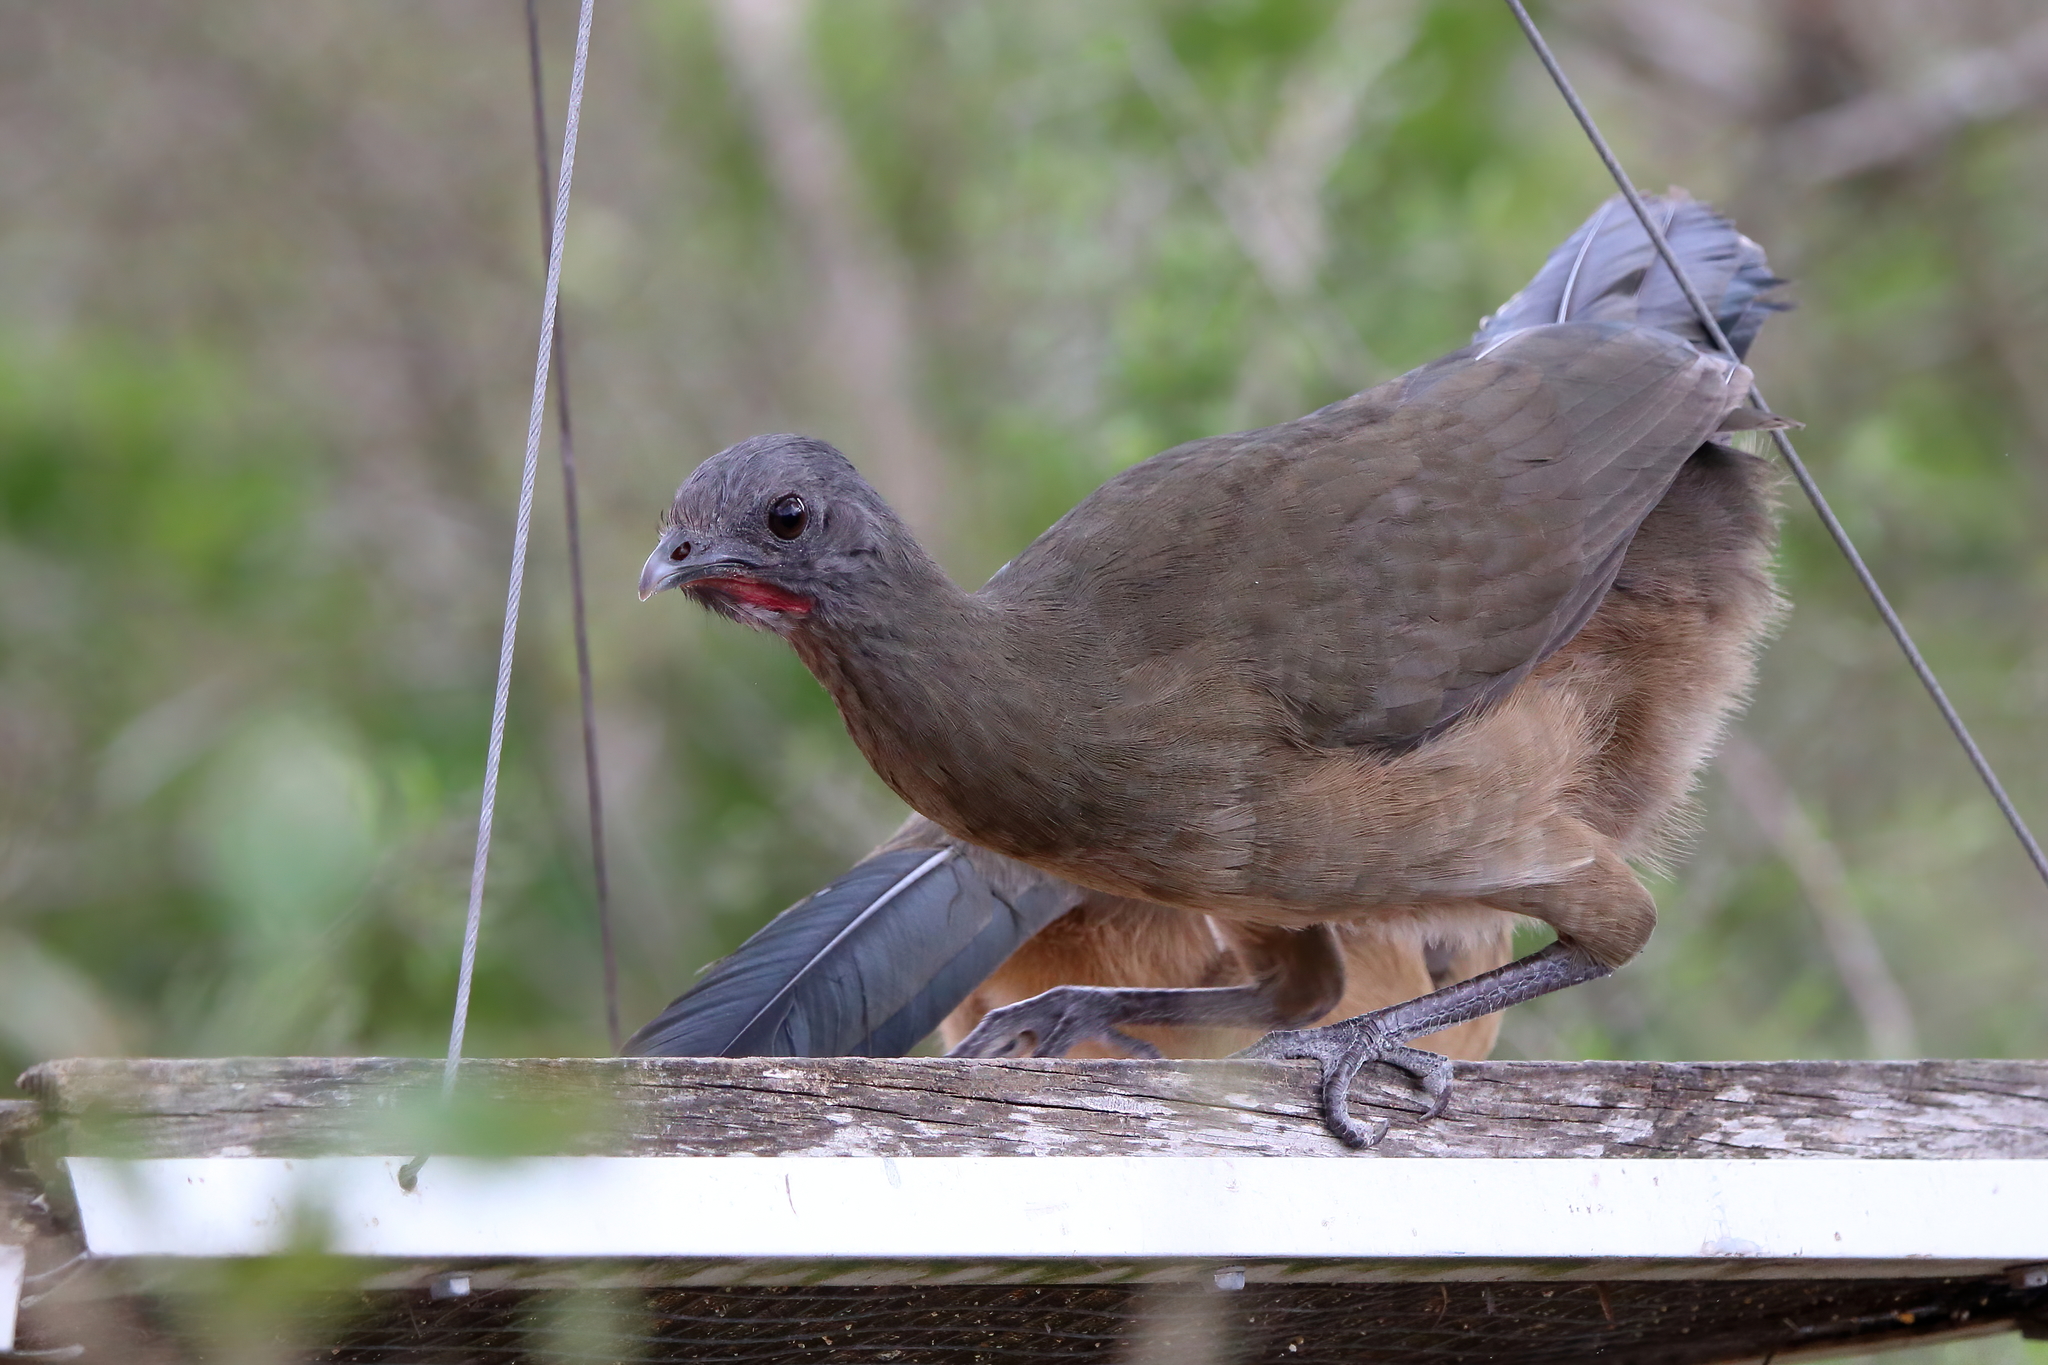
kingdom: Animalia
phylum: Chordata
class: Aves
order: Galliformes
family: Cracidae
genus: Ortalis
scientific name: Ortalis vetula
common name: Plain chachalaca
